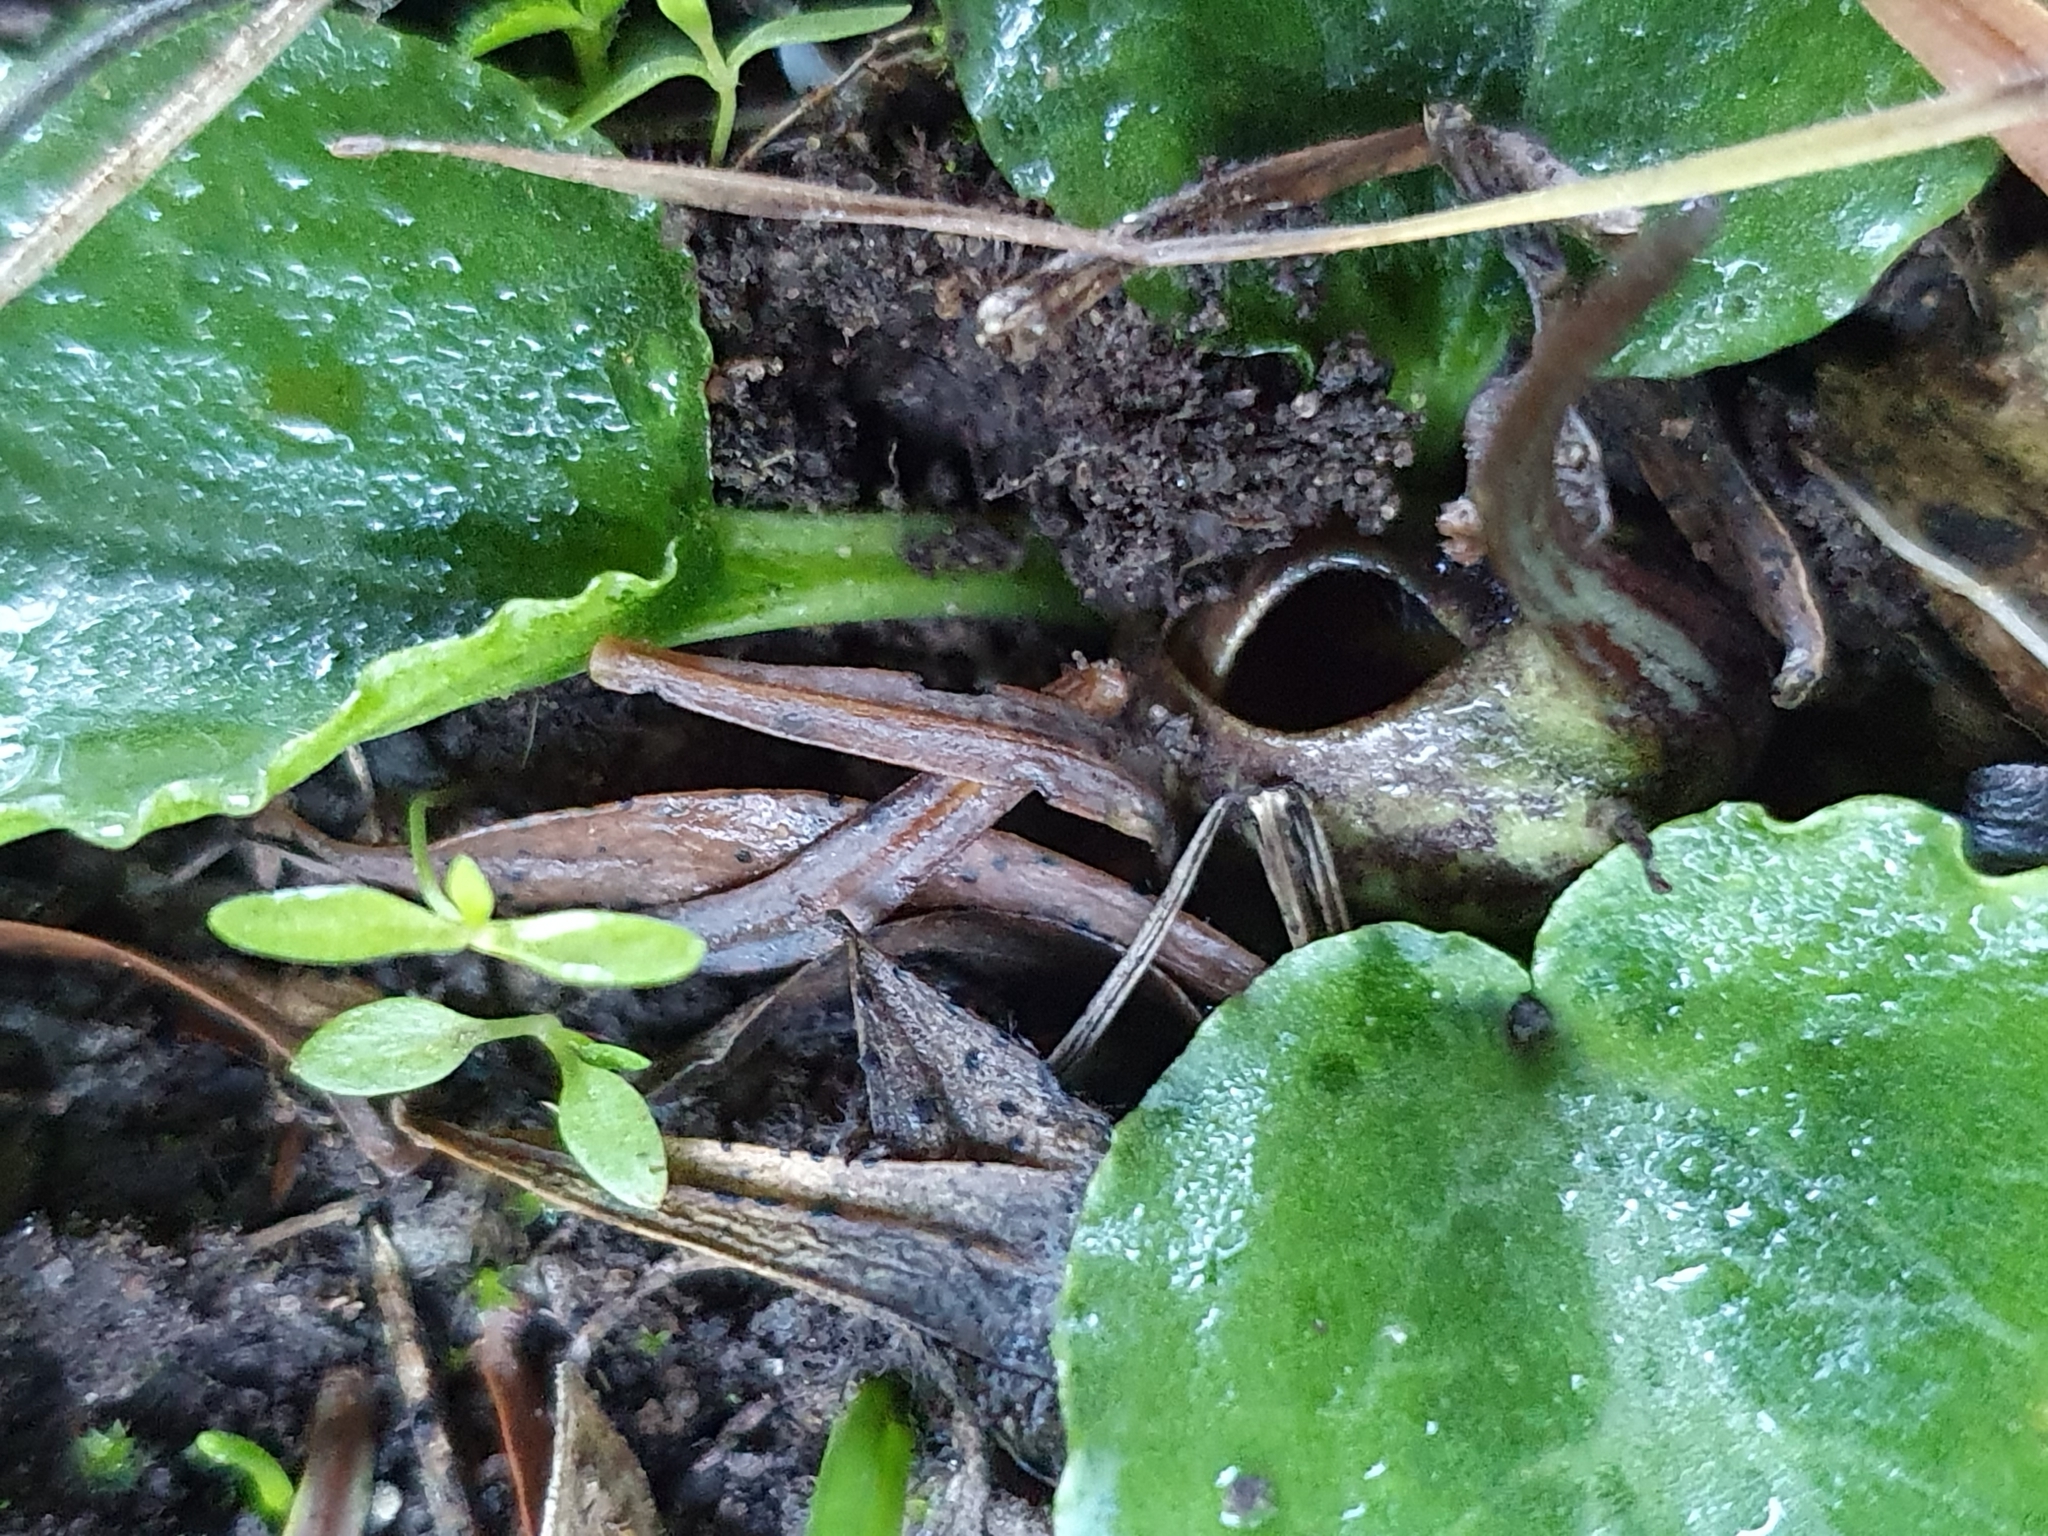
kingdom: Plantae
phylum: Tracheophyta
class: Liliopsida
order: Alismatales
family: Araceae
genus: Ambrosina
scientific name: Ambrosina bassii
